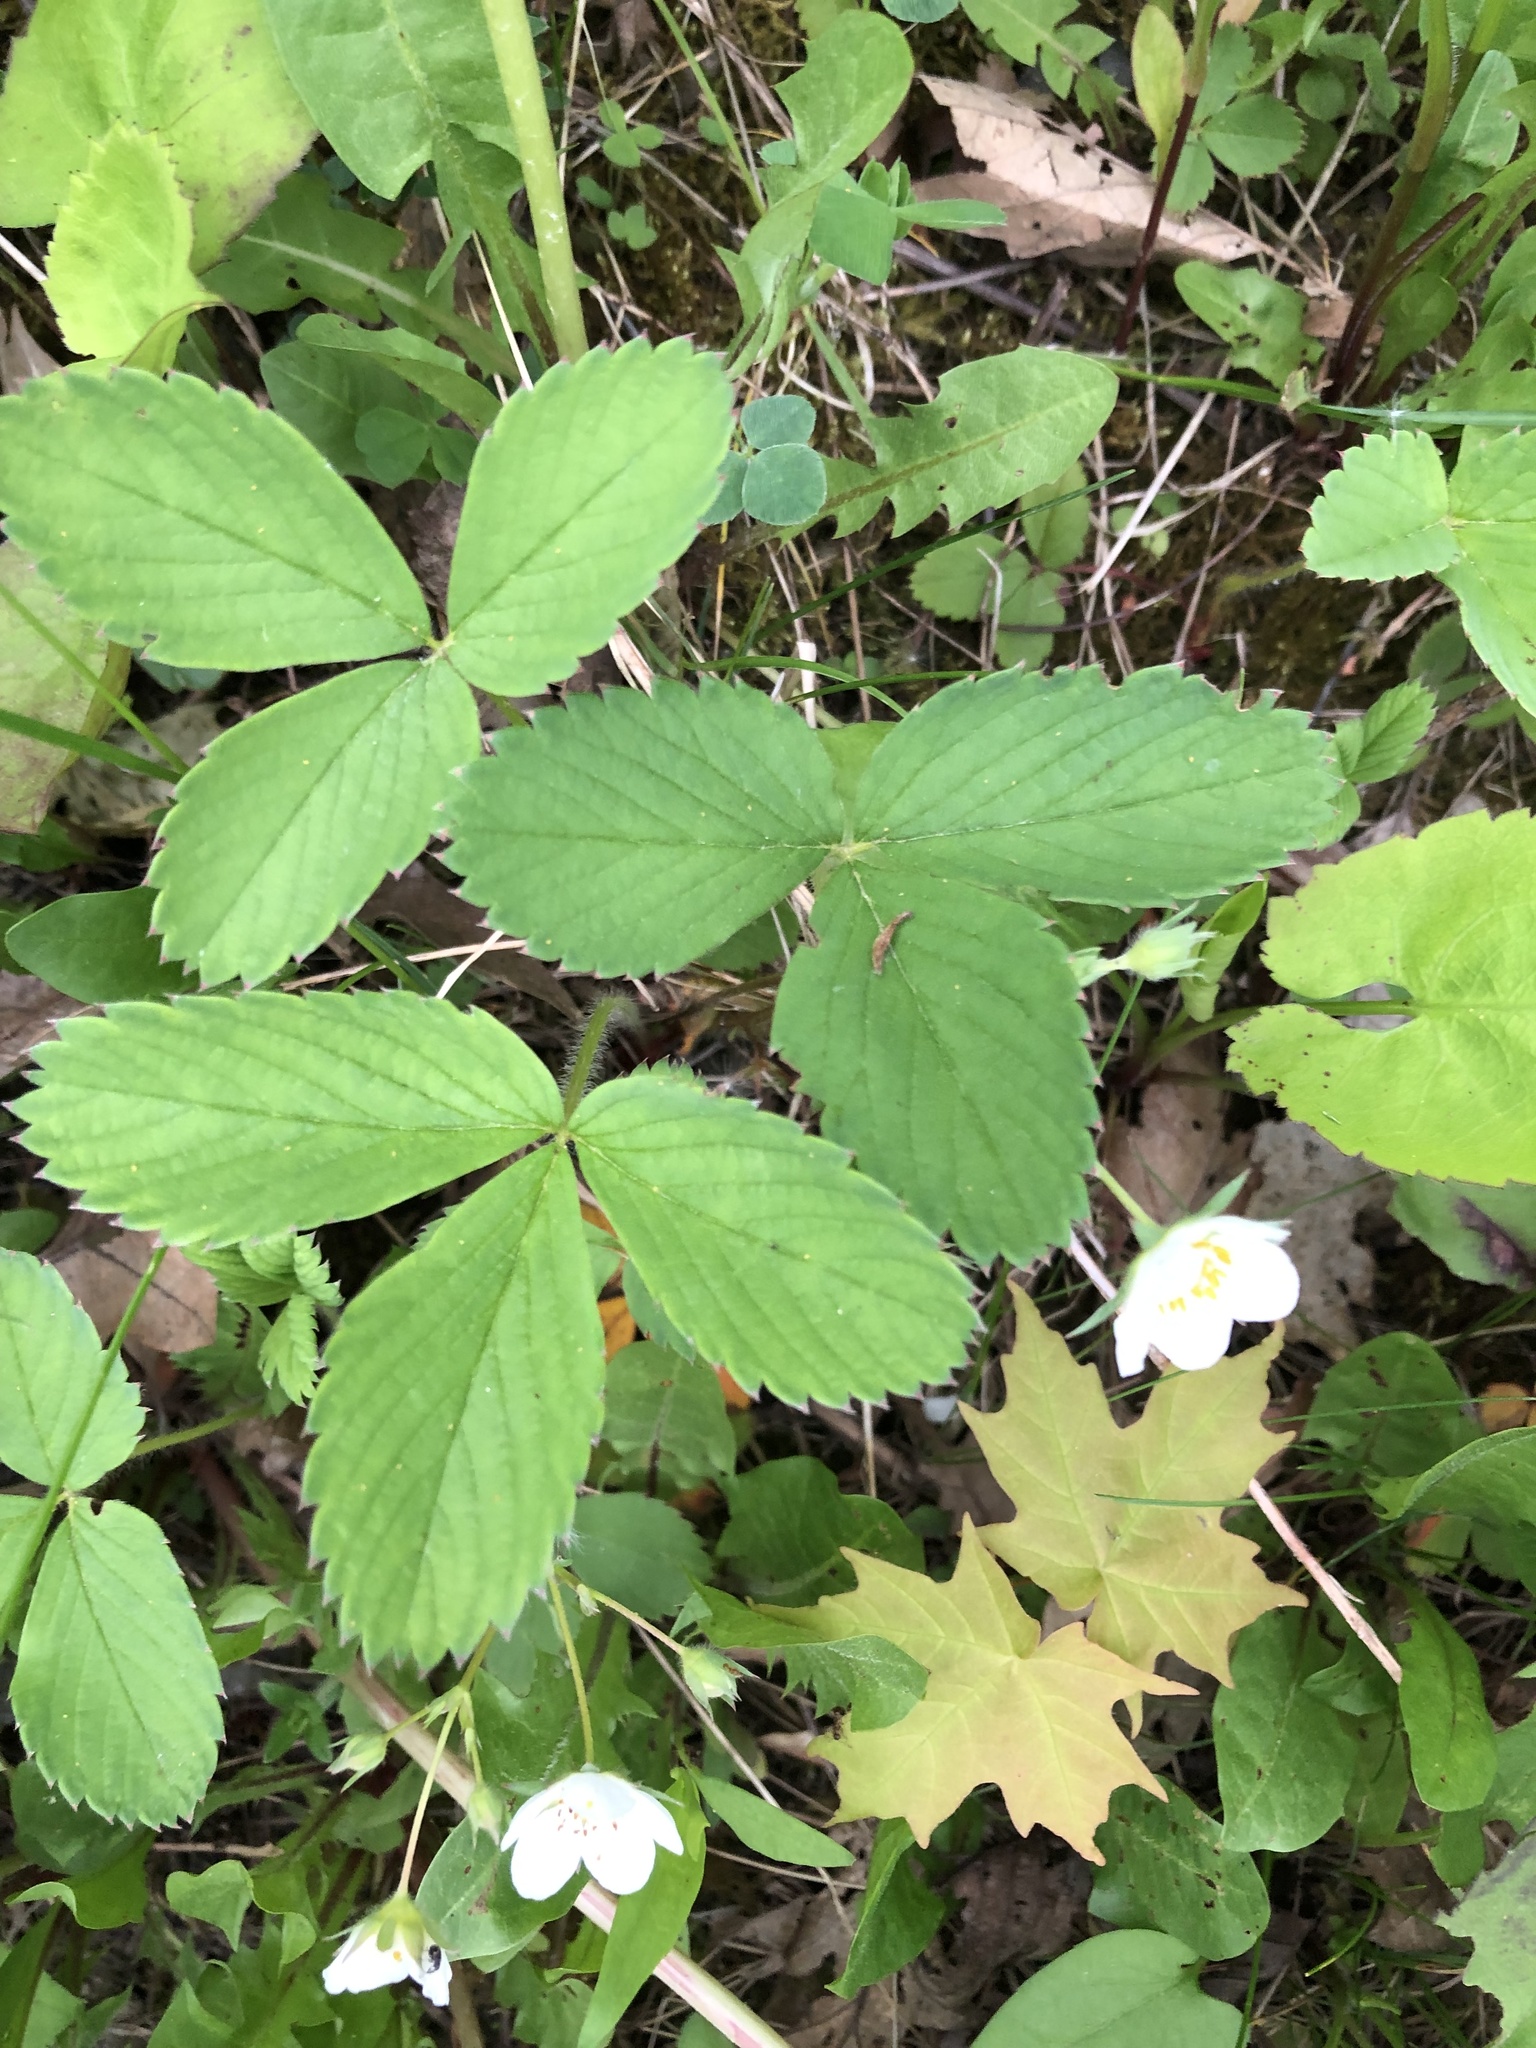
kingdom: Plantae
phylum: Tracheophyta
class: Magnoliopsida
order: Rosales
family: Rosaceae
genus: Fragaria
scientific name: Fragaria virginiana
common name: Thickleaved wild strawberry
